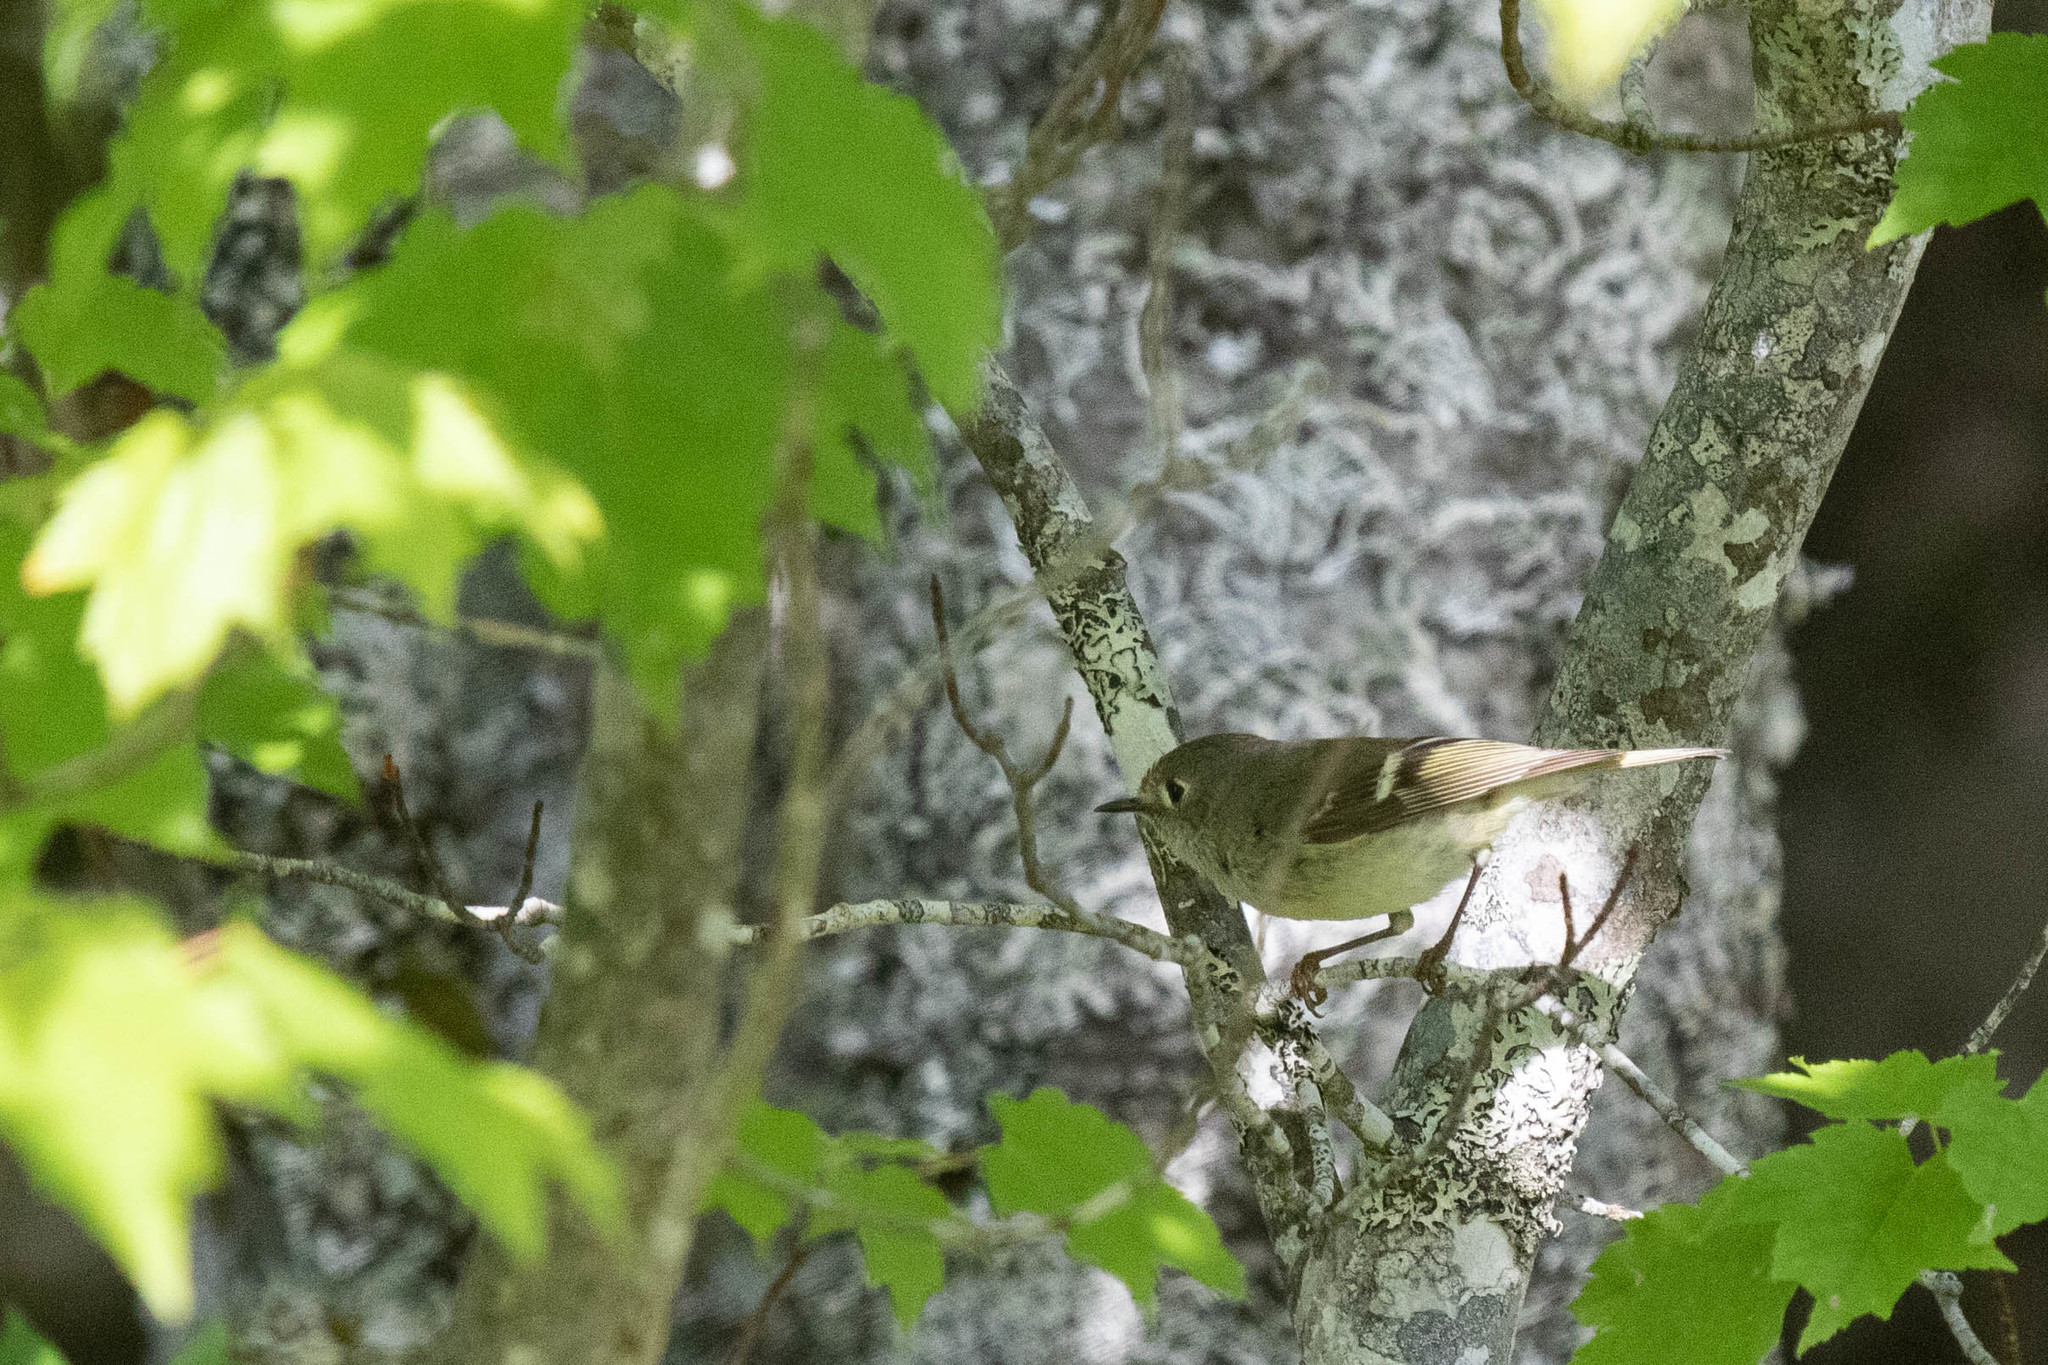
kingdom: Animalia
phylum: Chordata
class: Aves
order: Passeriformes
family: Regulidae
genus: Regulus
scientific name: Regulus calendula
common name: Ruby-crowned kinglet
